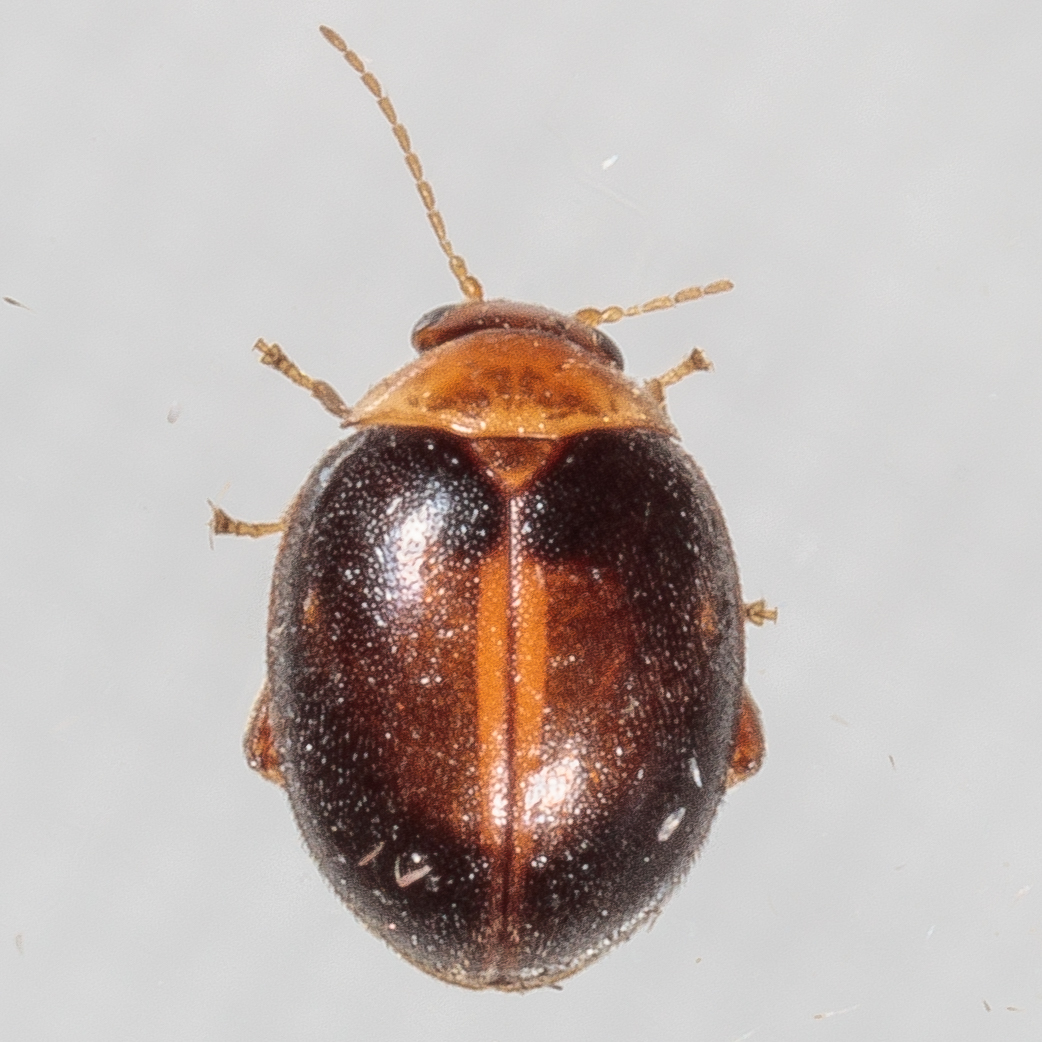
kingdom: Animalia
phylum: Arthropoda
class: Insecta
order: Coleoptera
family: Scirtidae
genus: Scirtes
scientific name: Scirtes orbiculatus
